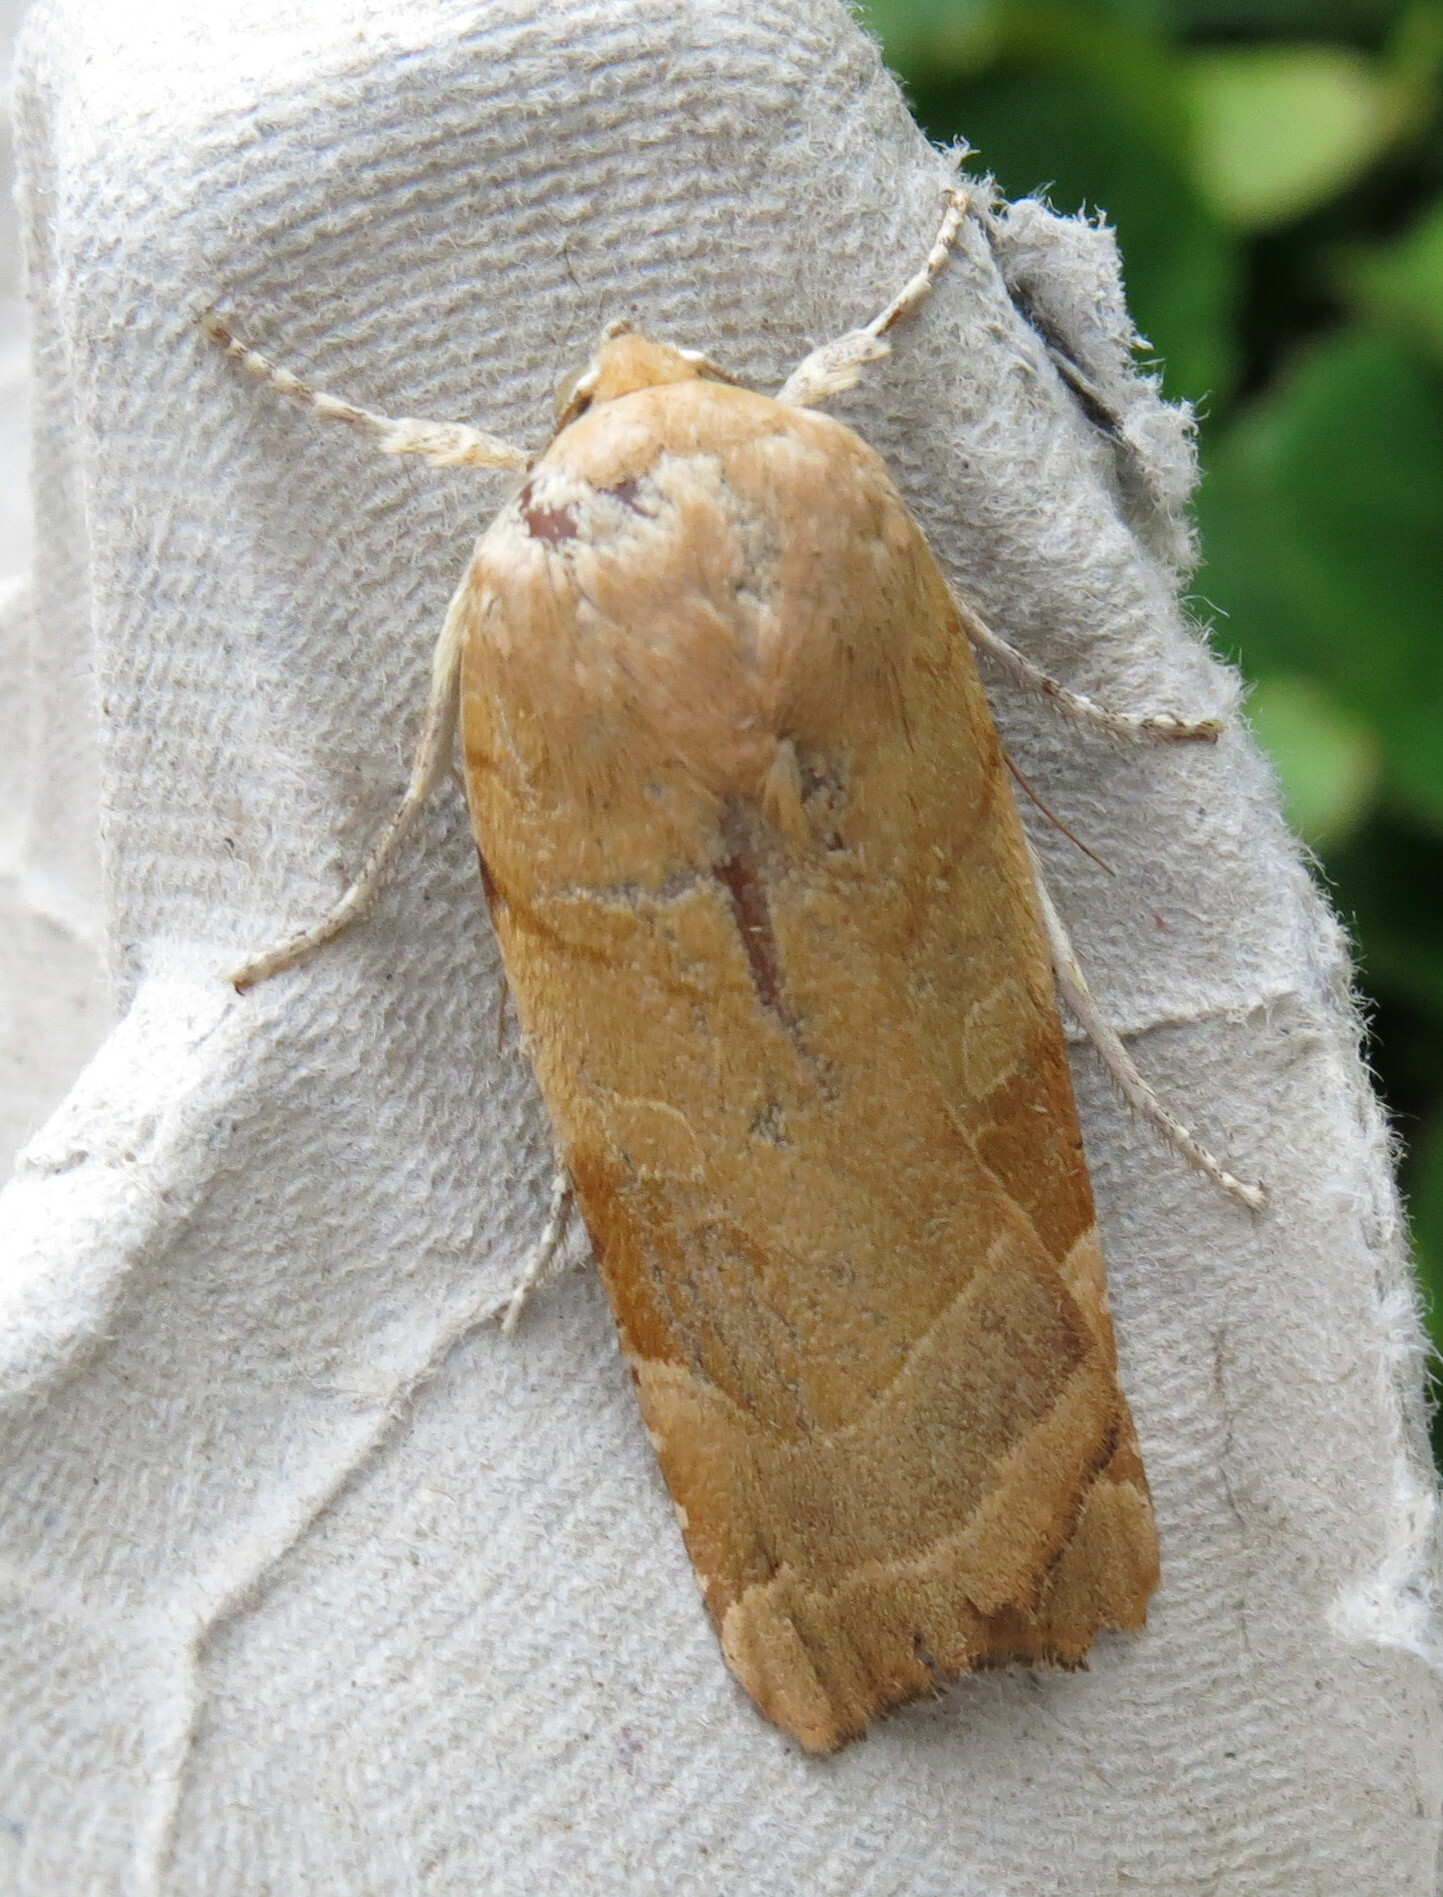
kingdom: Animalia
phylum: Arthropoda
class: Insecta
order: Lepidoptera
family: Noctuidae
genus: Noctua
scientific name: Noctua fimbriata
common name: Broad-bordered yellow underwing
